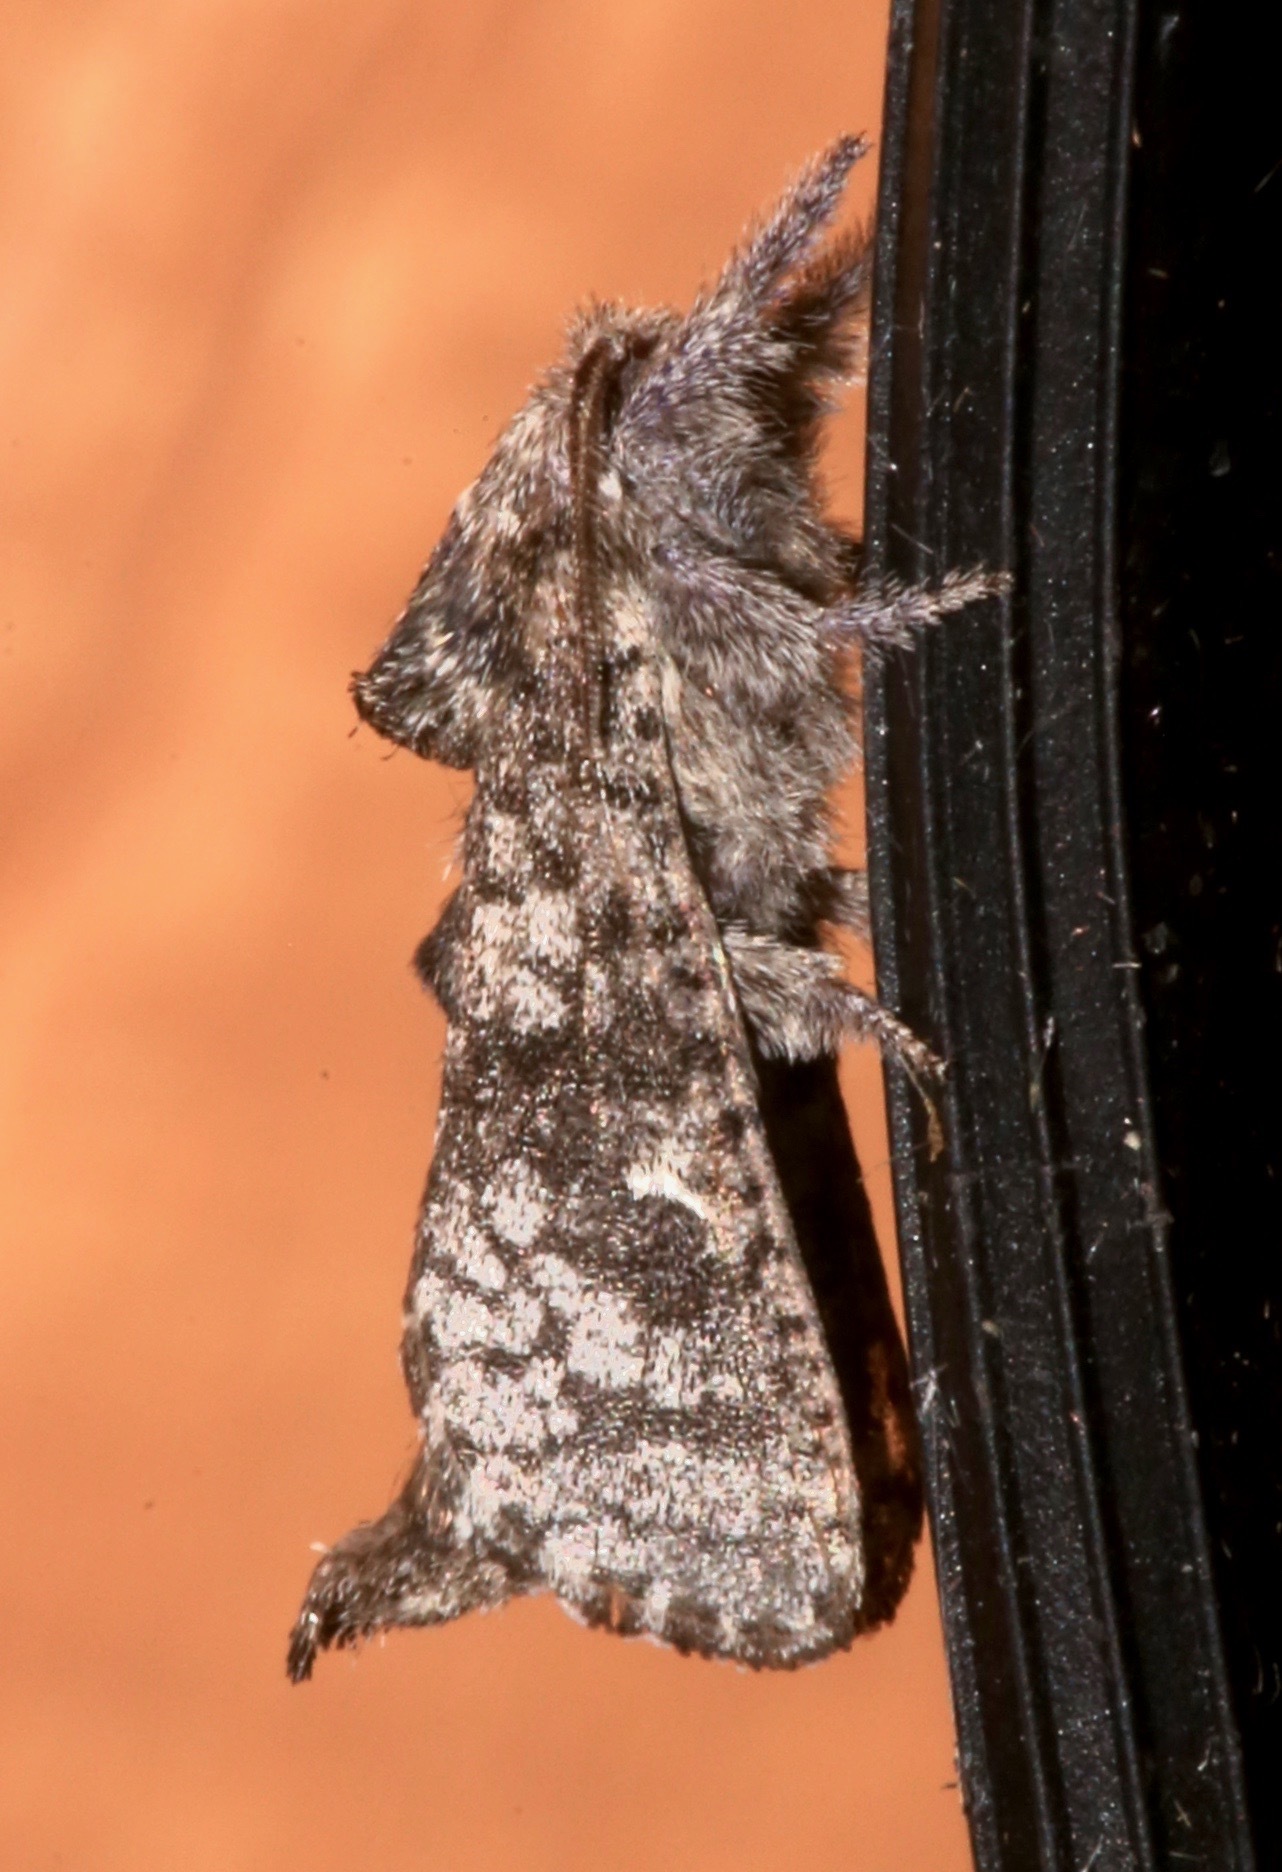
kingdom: Animalia
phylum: Arthropoda
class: Insecta
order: Lepidoptera
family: Cossidae
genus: Givira
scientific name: Givira francesca
